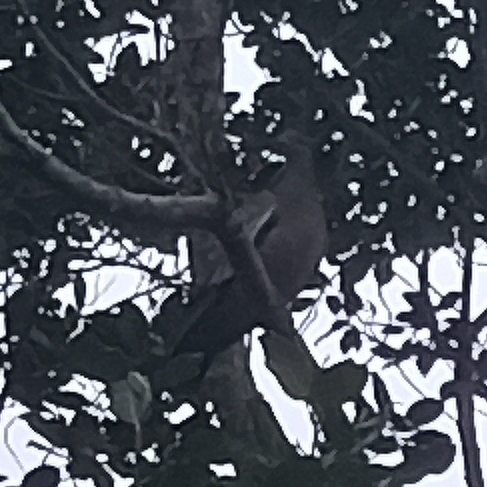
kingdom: Animalia
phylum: Chordata
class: Aves
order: Columbiformes
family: Columbidae
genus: Patagioenas
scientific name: Patagioenas picazuro
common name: Picazuro pigeon
